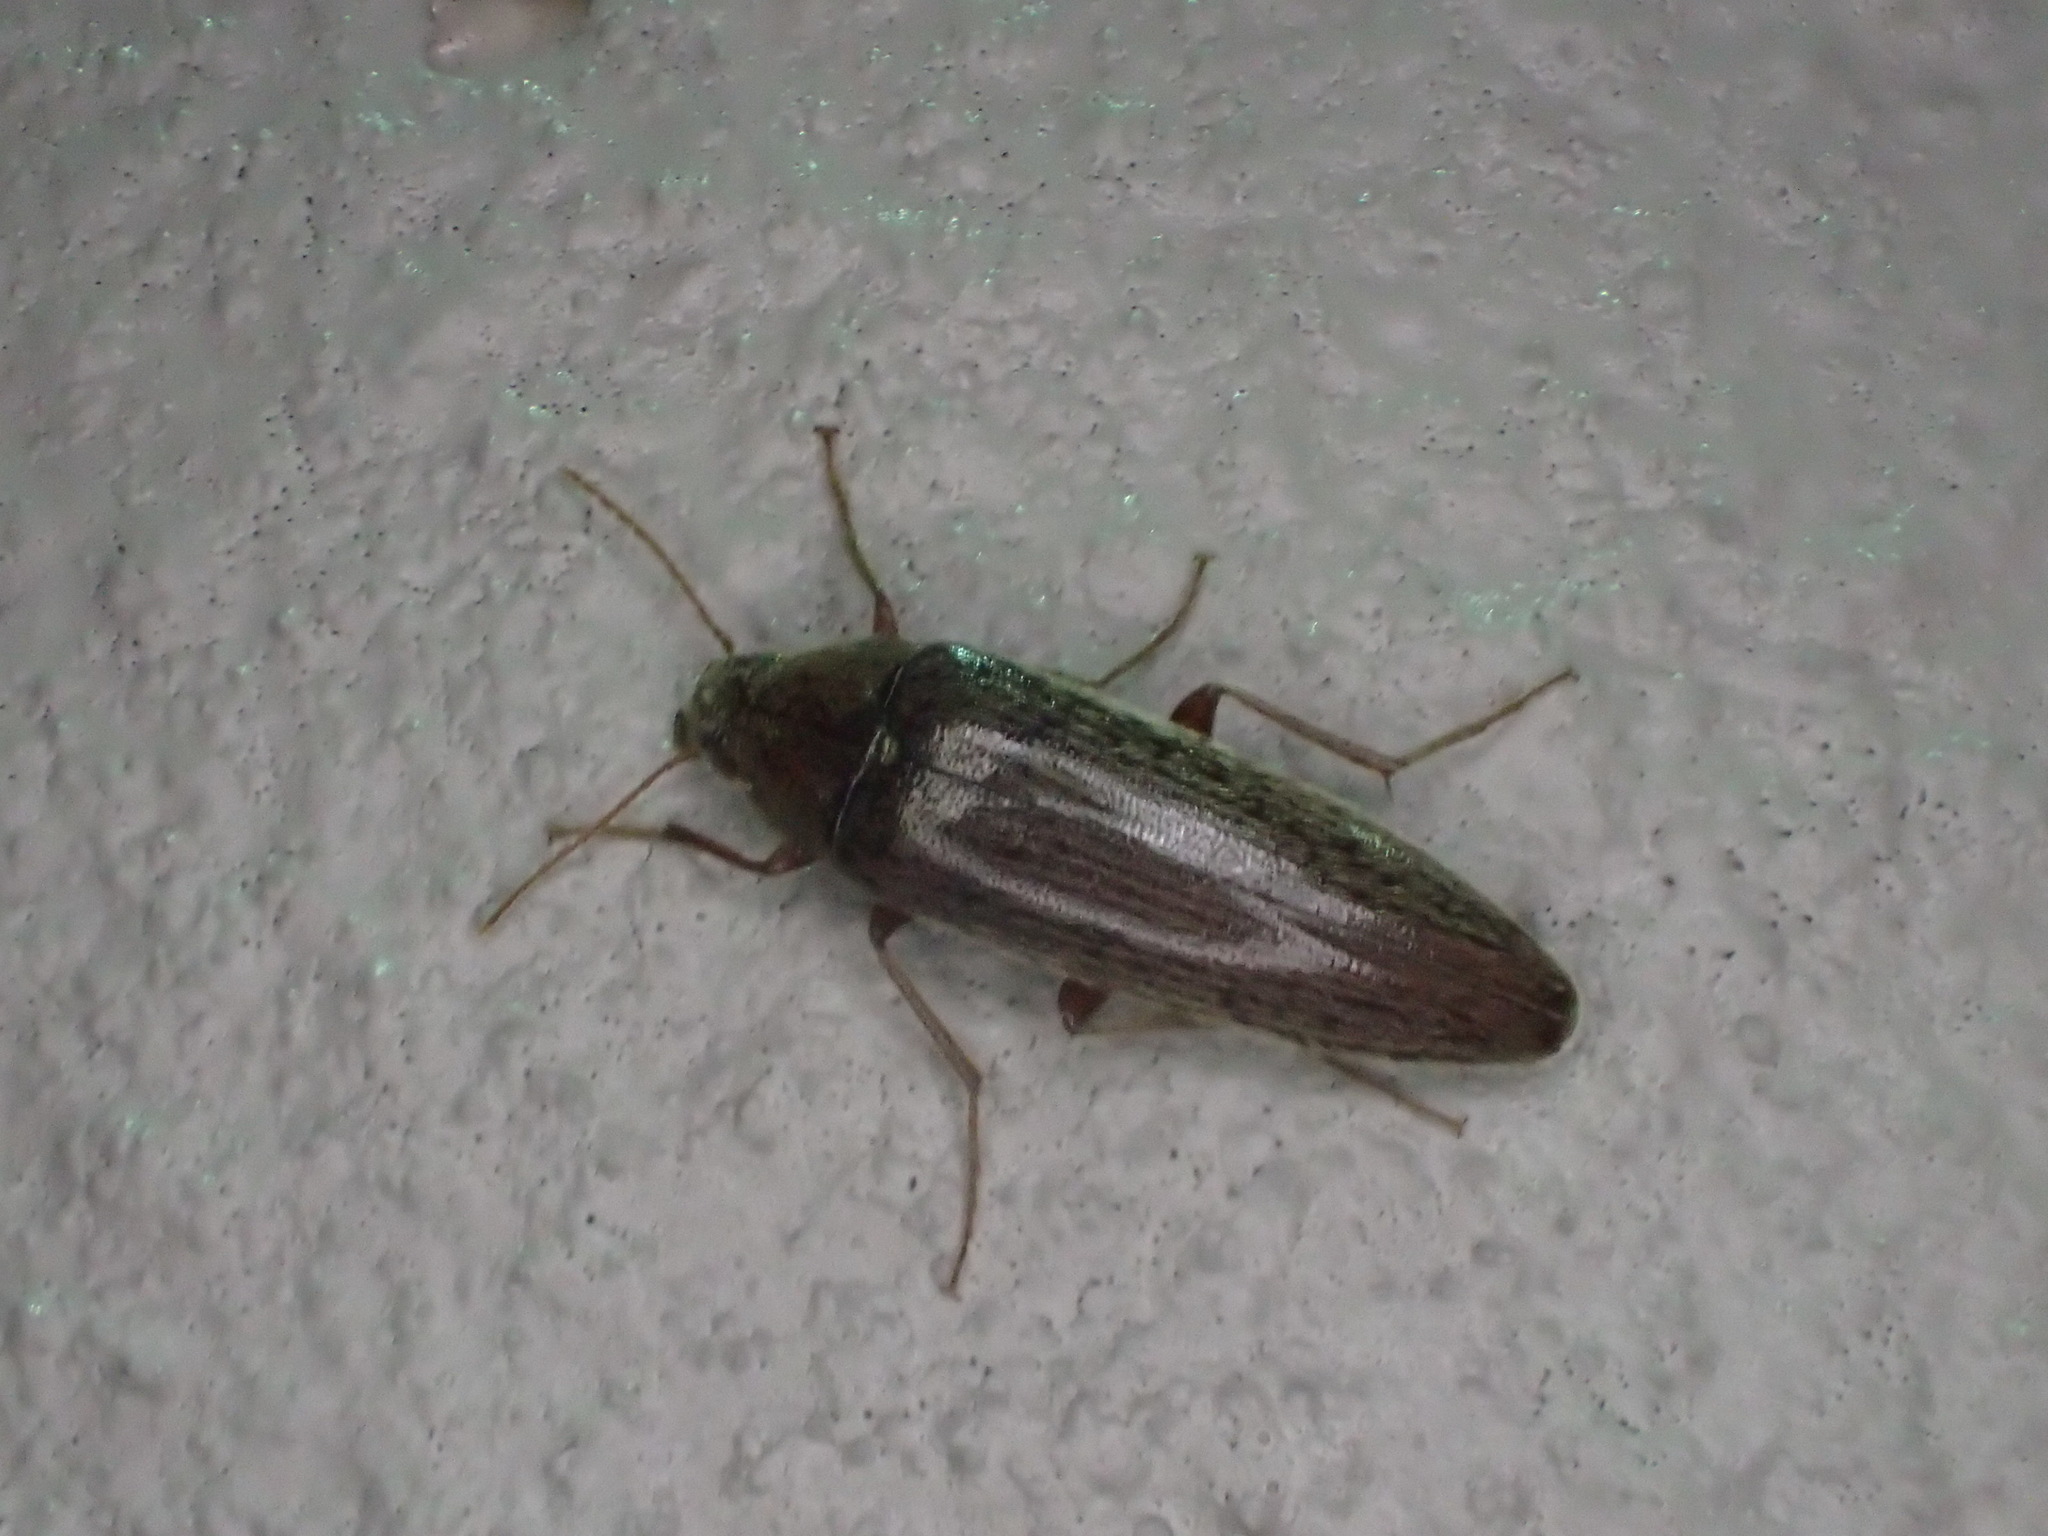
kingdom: Animalia
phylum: Arthropoda
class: Insecta
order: Coleoptera
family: Synchroidae
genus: Synchroa
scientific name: Synchroa punctata
